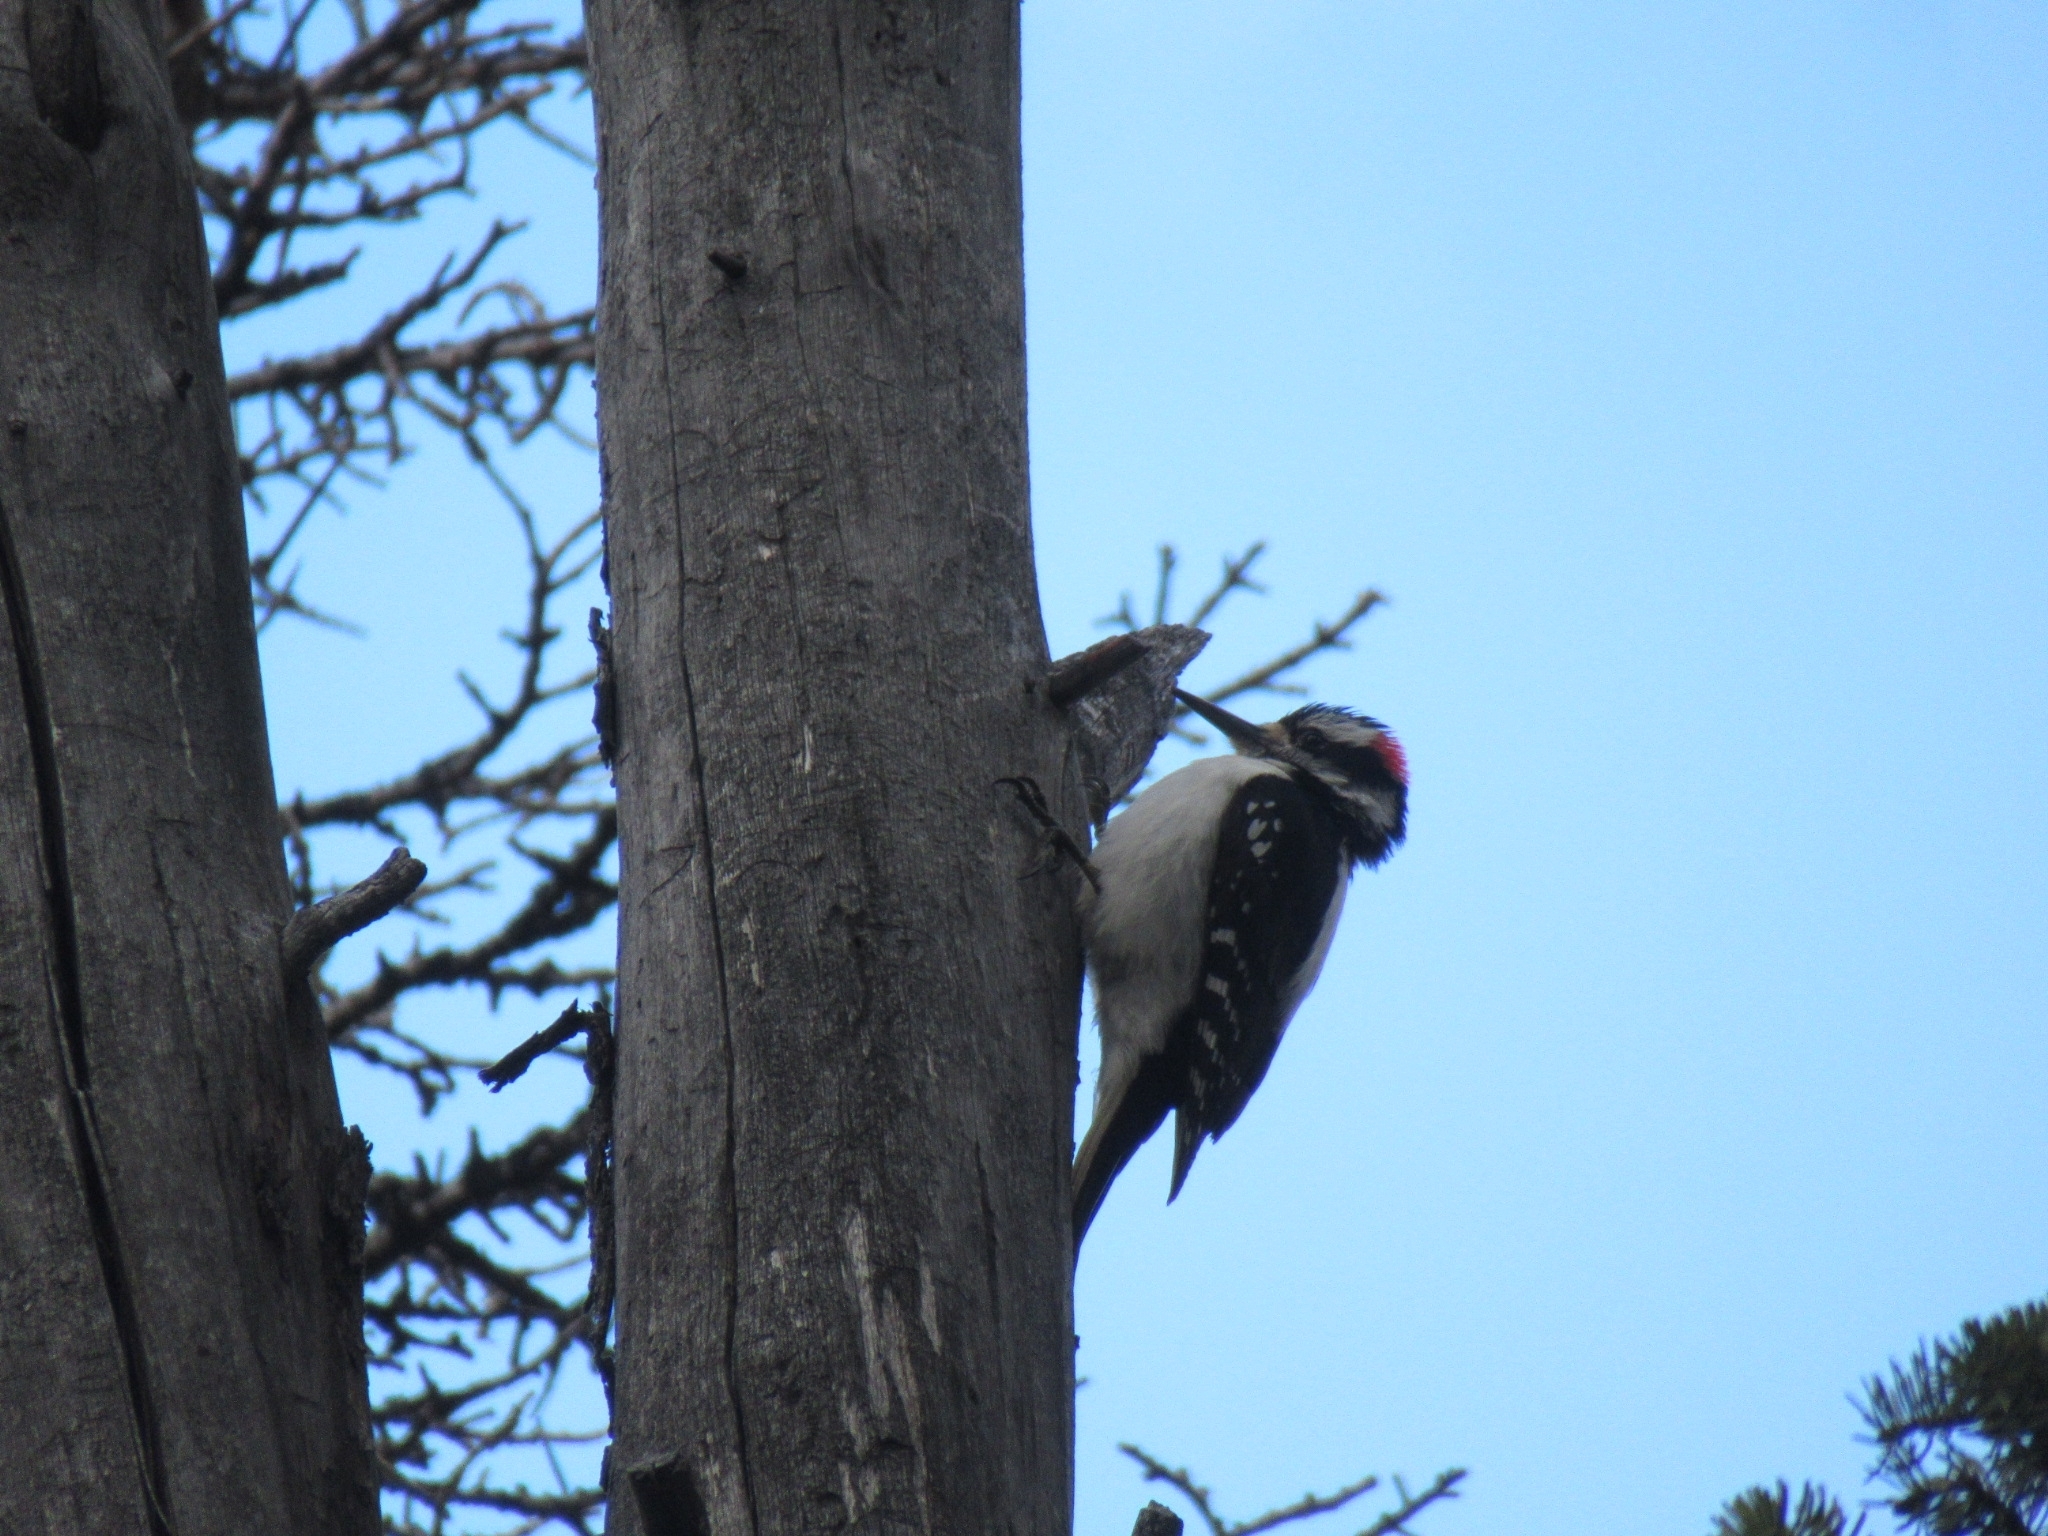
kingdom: Animalia
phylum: Chordata
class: Aves
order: Piciformes
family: Picidae
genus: Leuconotopicus
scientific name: Leuconotopicus villosus
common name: Hairy woodpecker
